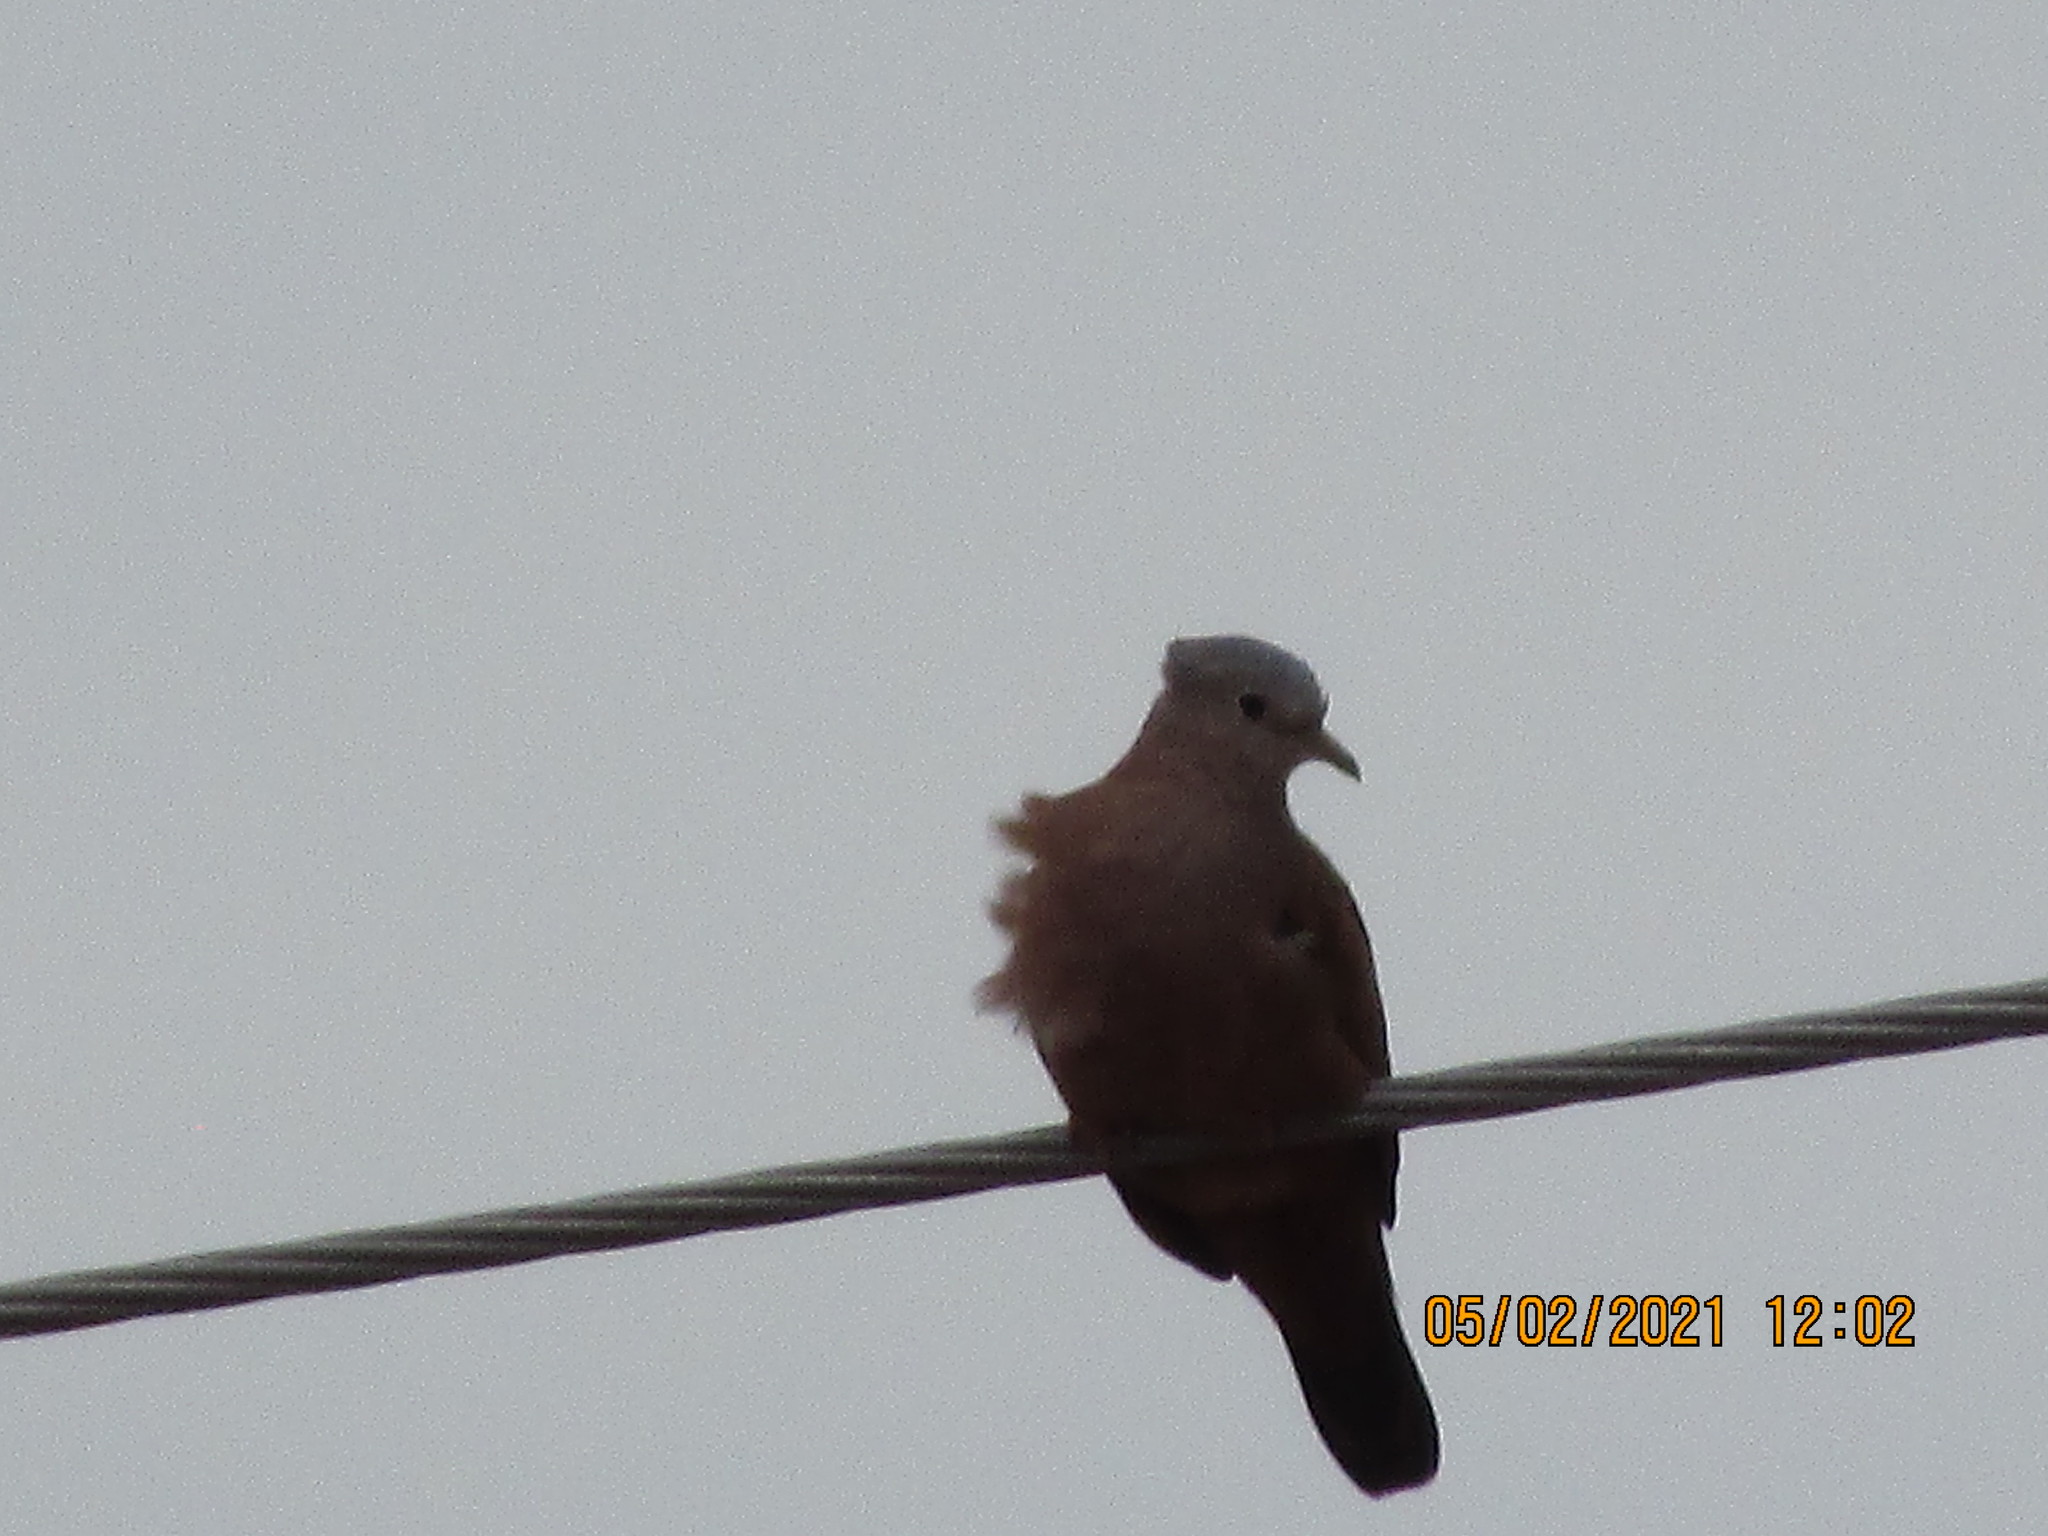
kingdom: Animalia
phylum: Chordata
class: Aves
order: Columbiformes
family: Columbidae
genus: Columbina
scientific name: Columbina talpacoti
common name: Ruddy ground dove
